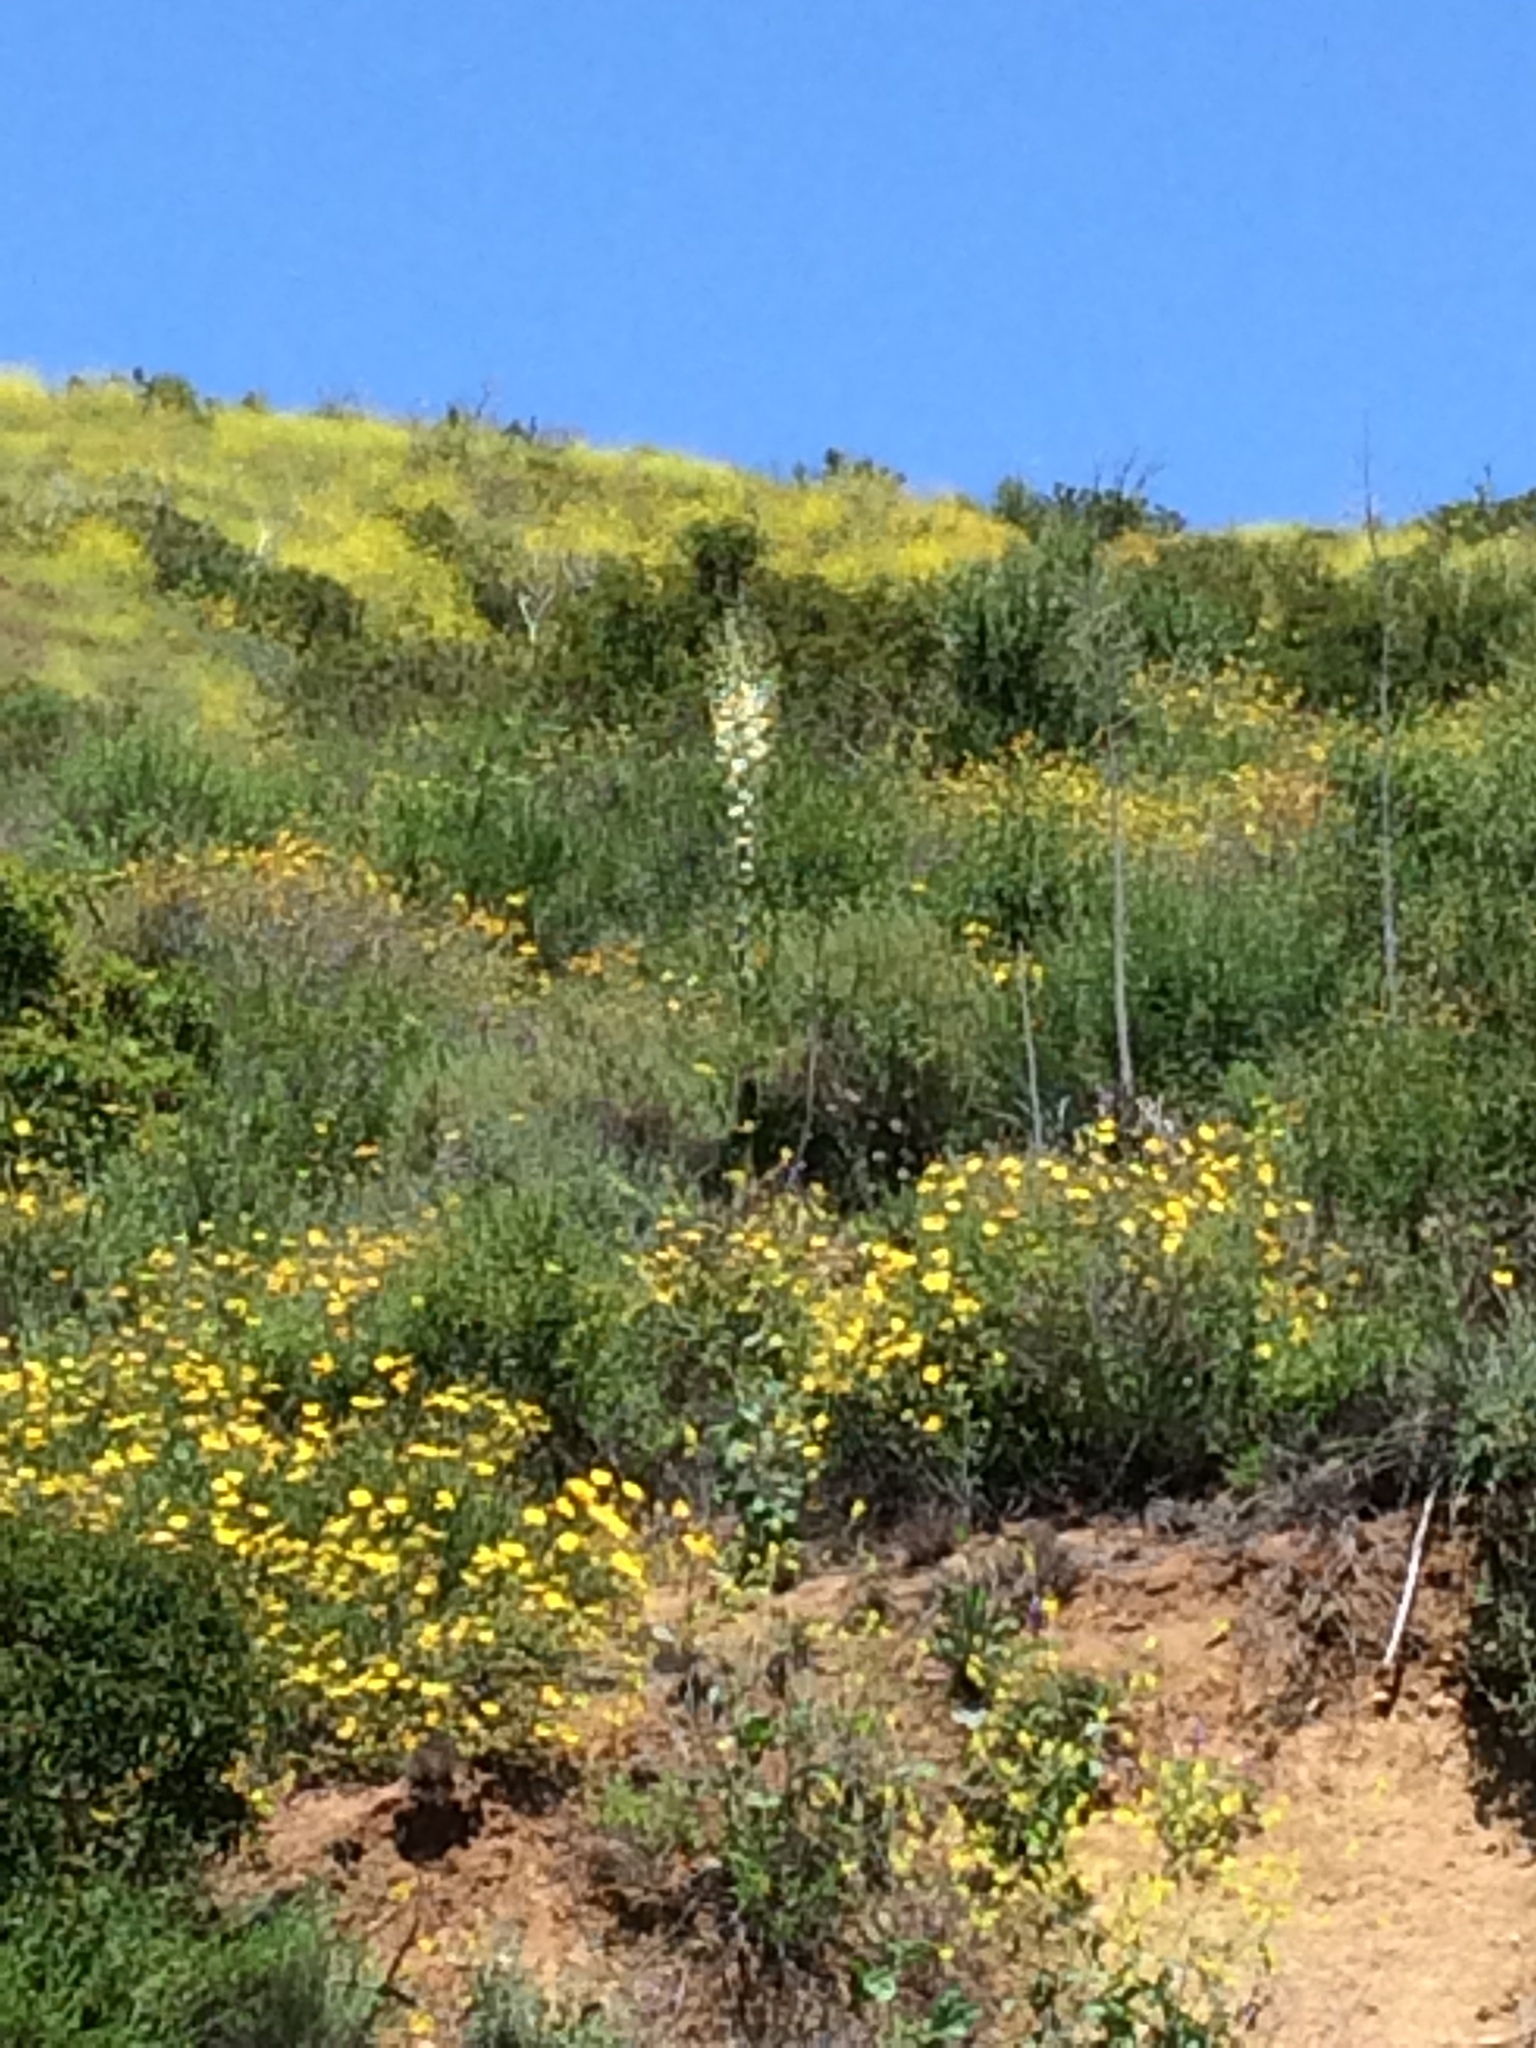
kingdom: Plantae
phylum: Tracheophyta
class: Liliopsida
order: Asparagales
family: Asparagaceae
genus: Hesperoyucca
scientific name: Hesperoyucca whipplei
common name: Our lord's-candle
